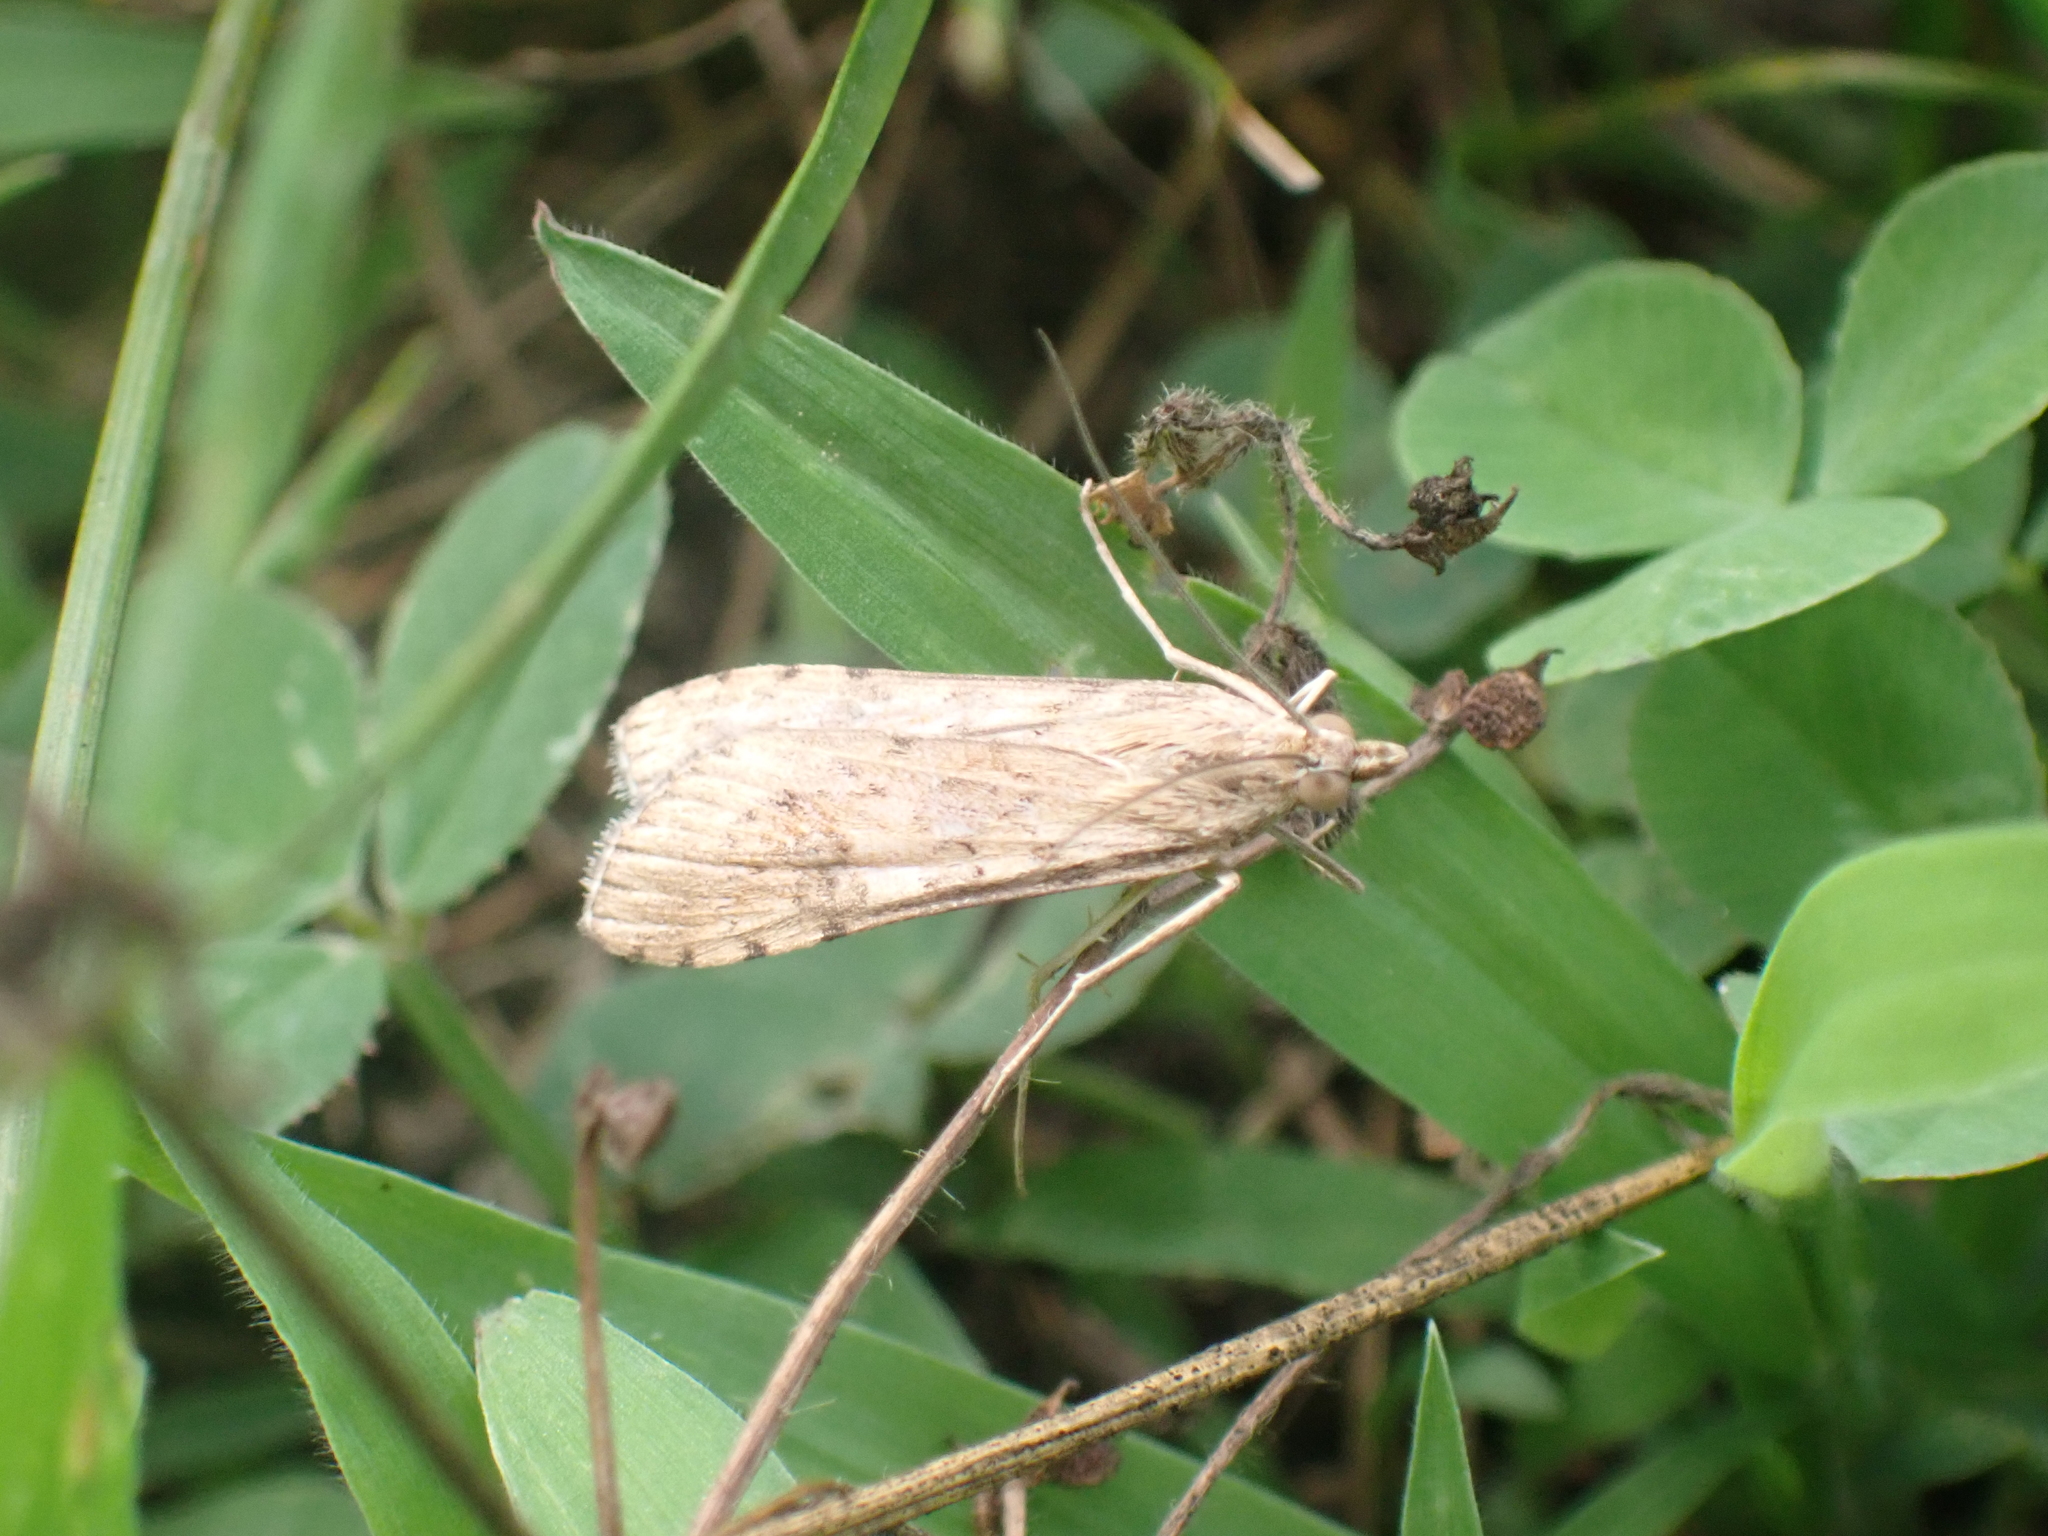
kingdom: Animalia
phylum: Arthropoda
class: Insecta
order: Lepidoptera
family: Crambidae
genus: Nomophila
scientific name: Nomophila nearctica
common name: American rush veneer
